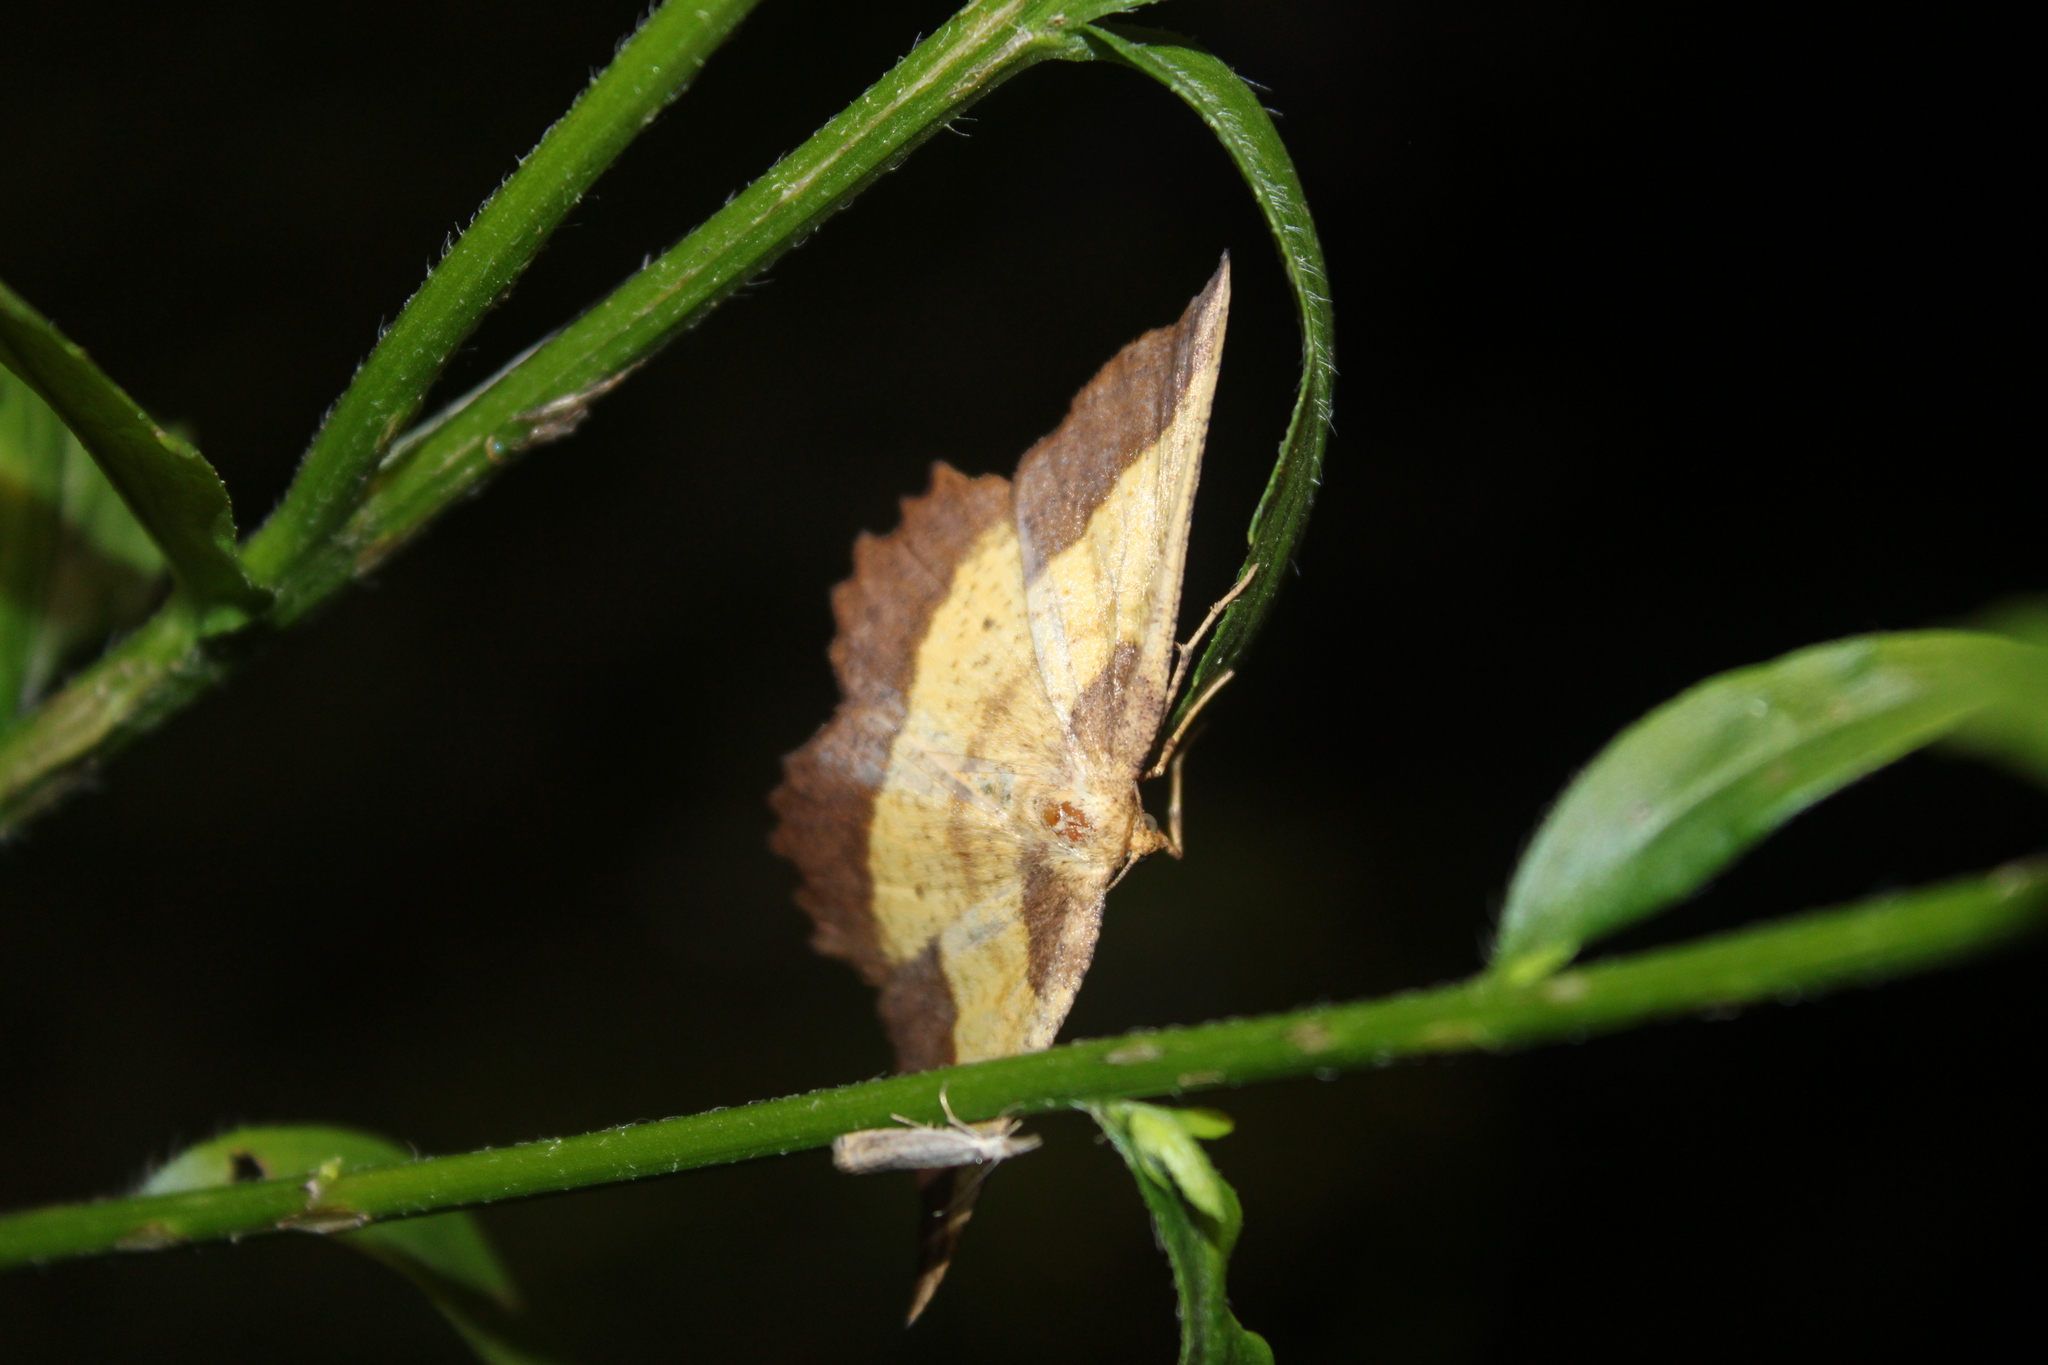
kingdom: Animalia
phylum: Arthropoda
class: Insecta
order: Lepidoptera
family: Geometridae
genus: Euchlaena
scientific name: Euchlaena serrata
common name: Saw wing
